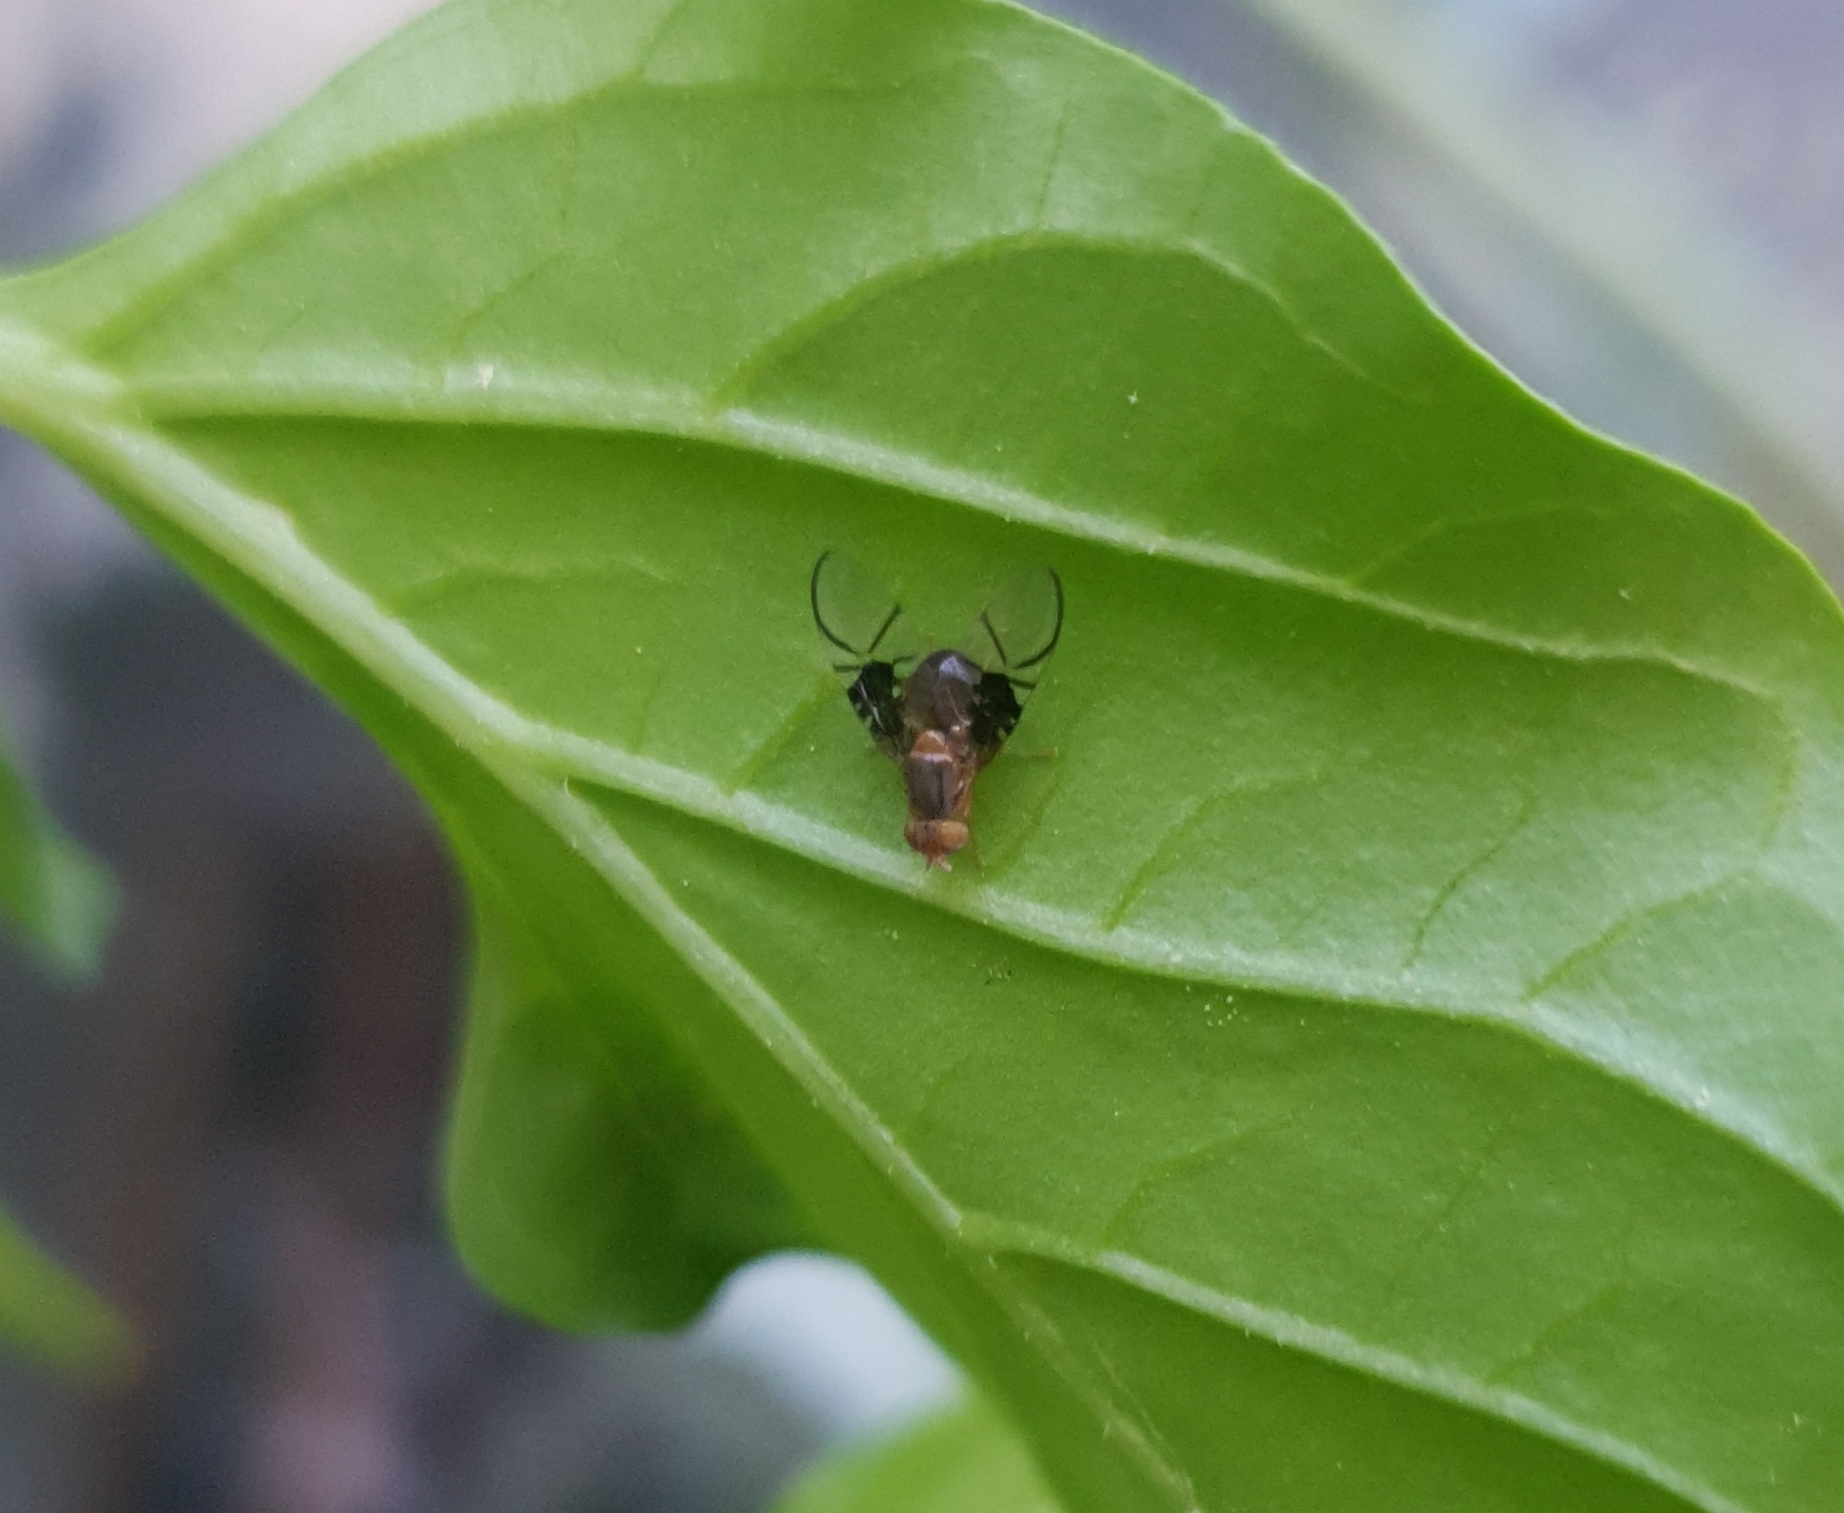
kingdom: Animalia
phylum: Arthropoda
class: Insecta
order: Diptera
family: Tephritidae
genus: Anomoia
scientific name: Anomoia purmunda
